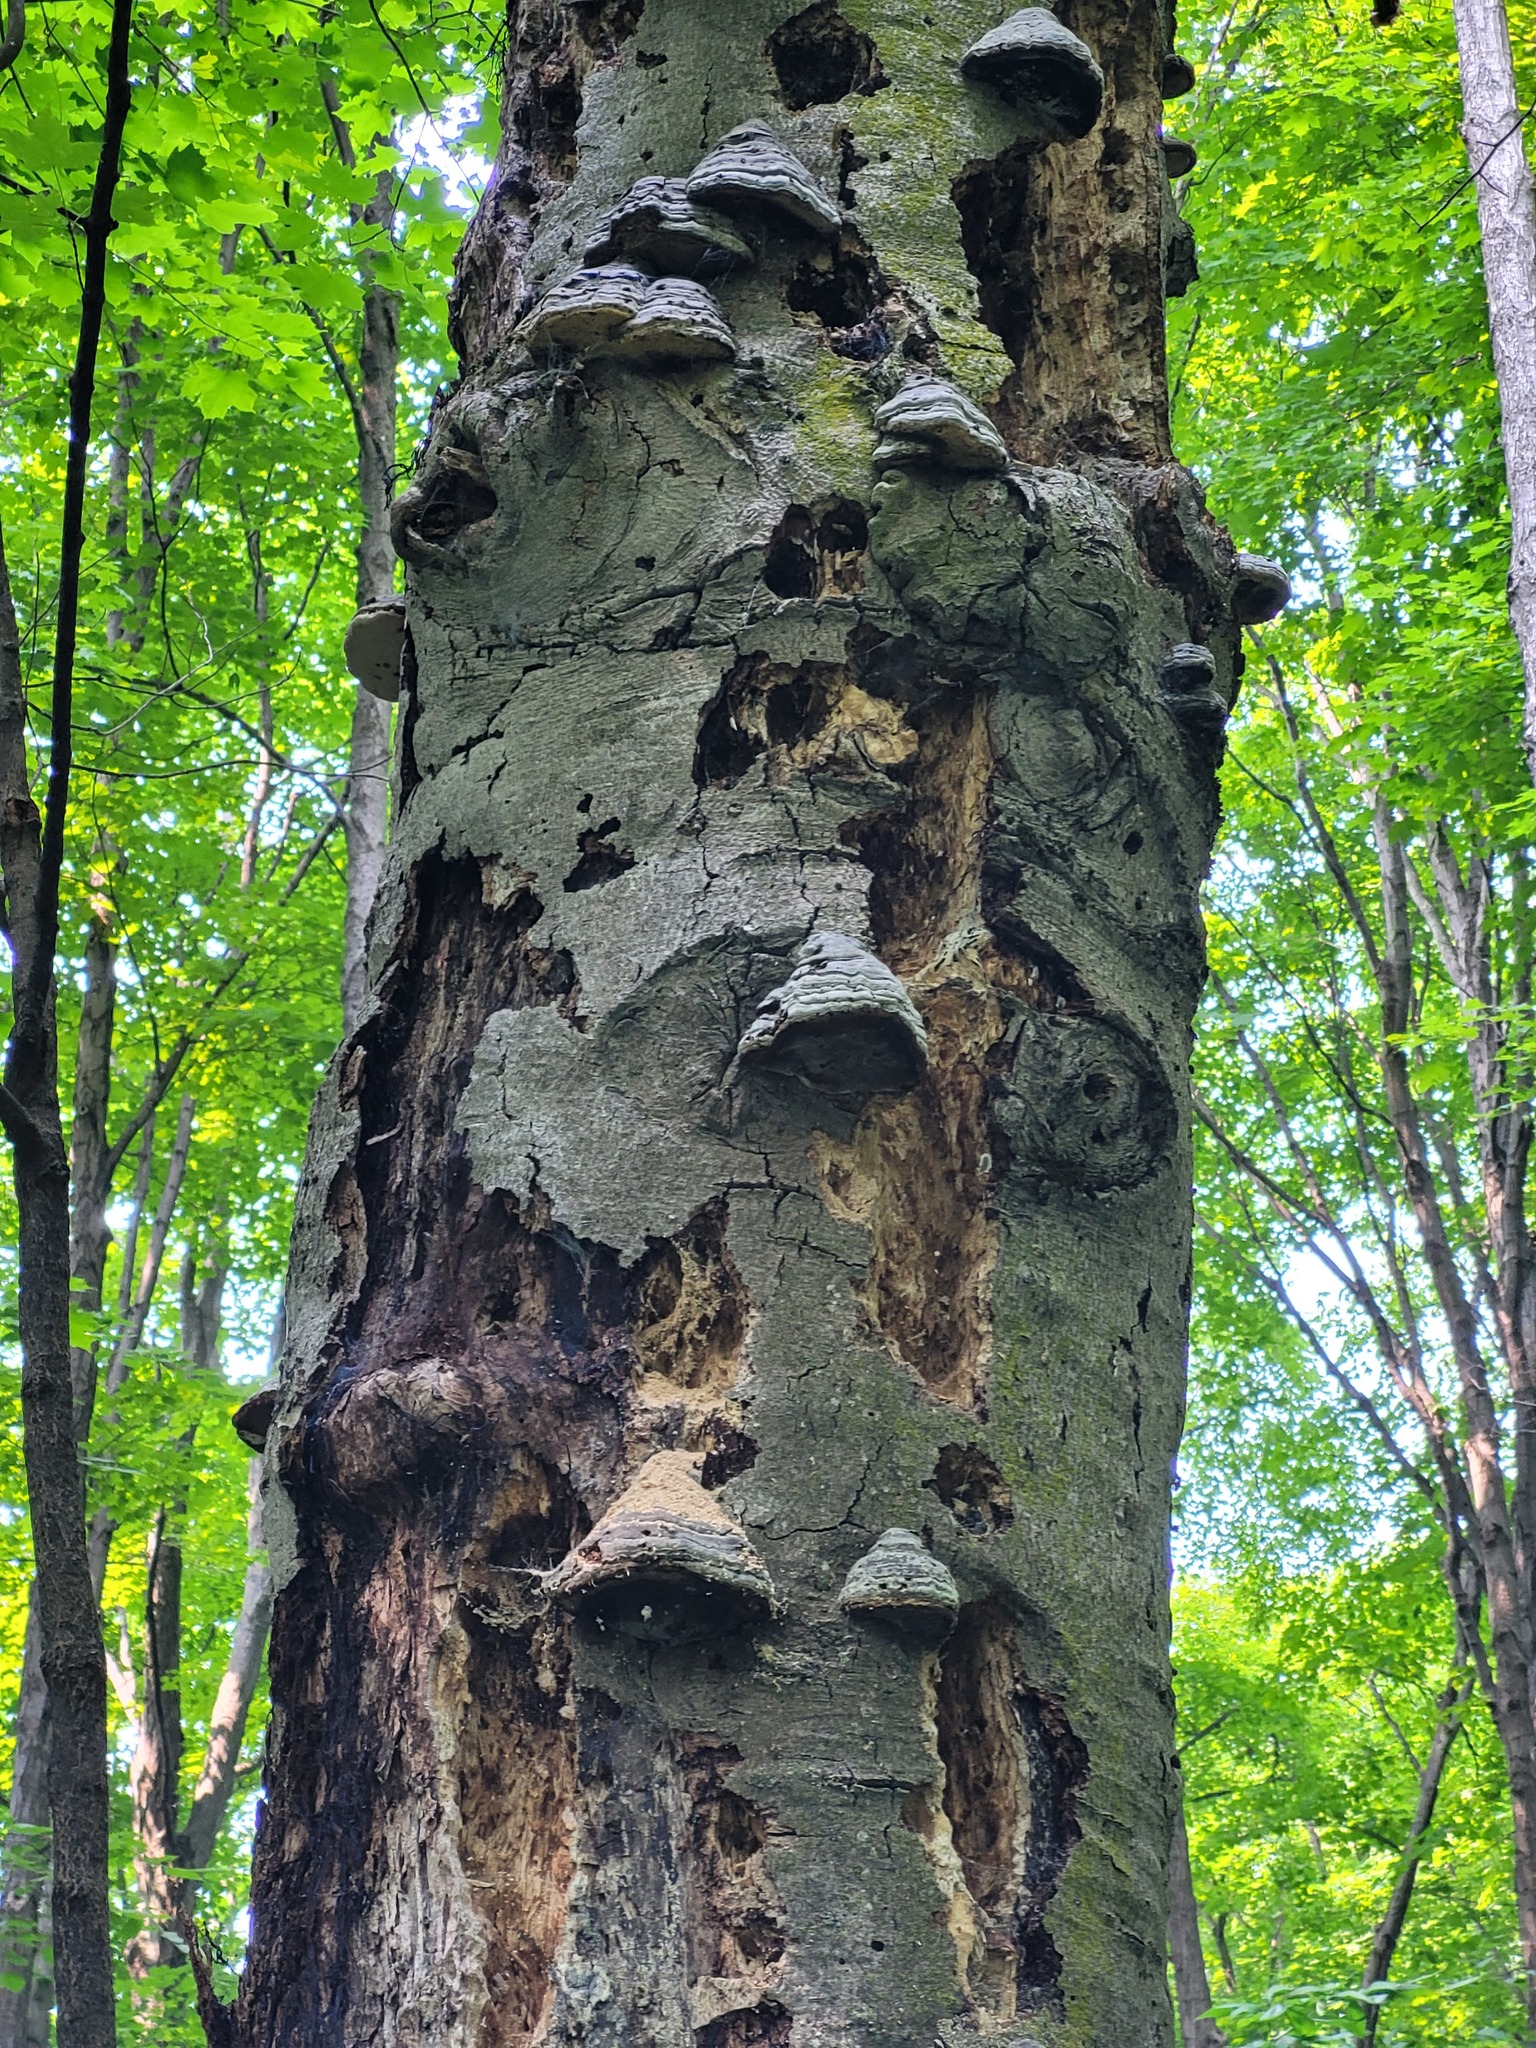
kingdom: Fungi
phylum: Basidiomycota
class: Agaricomycetes
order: Polyporales
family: Polyporaceae
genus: Fomes
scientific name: Fomes fomentarius
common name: Hoof fungus
